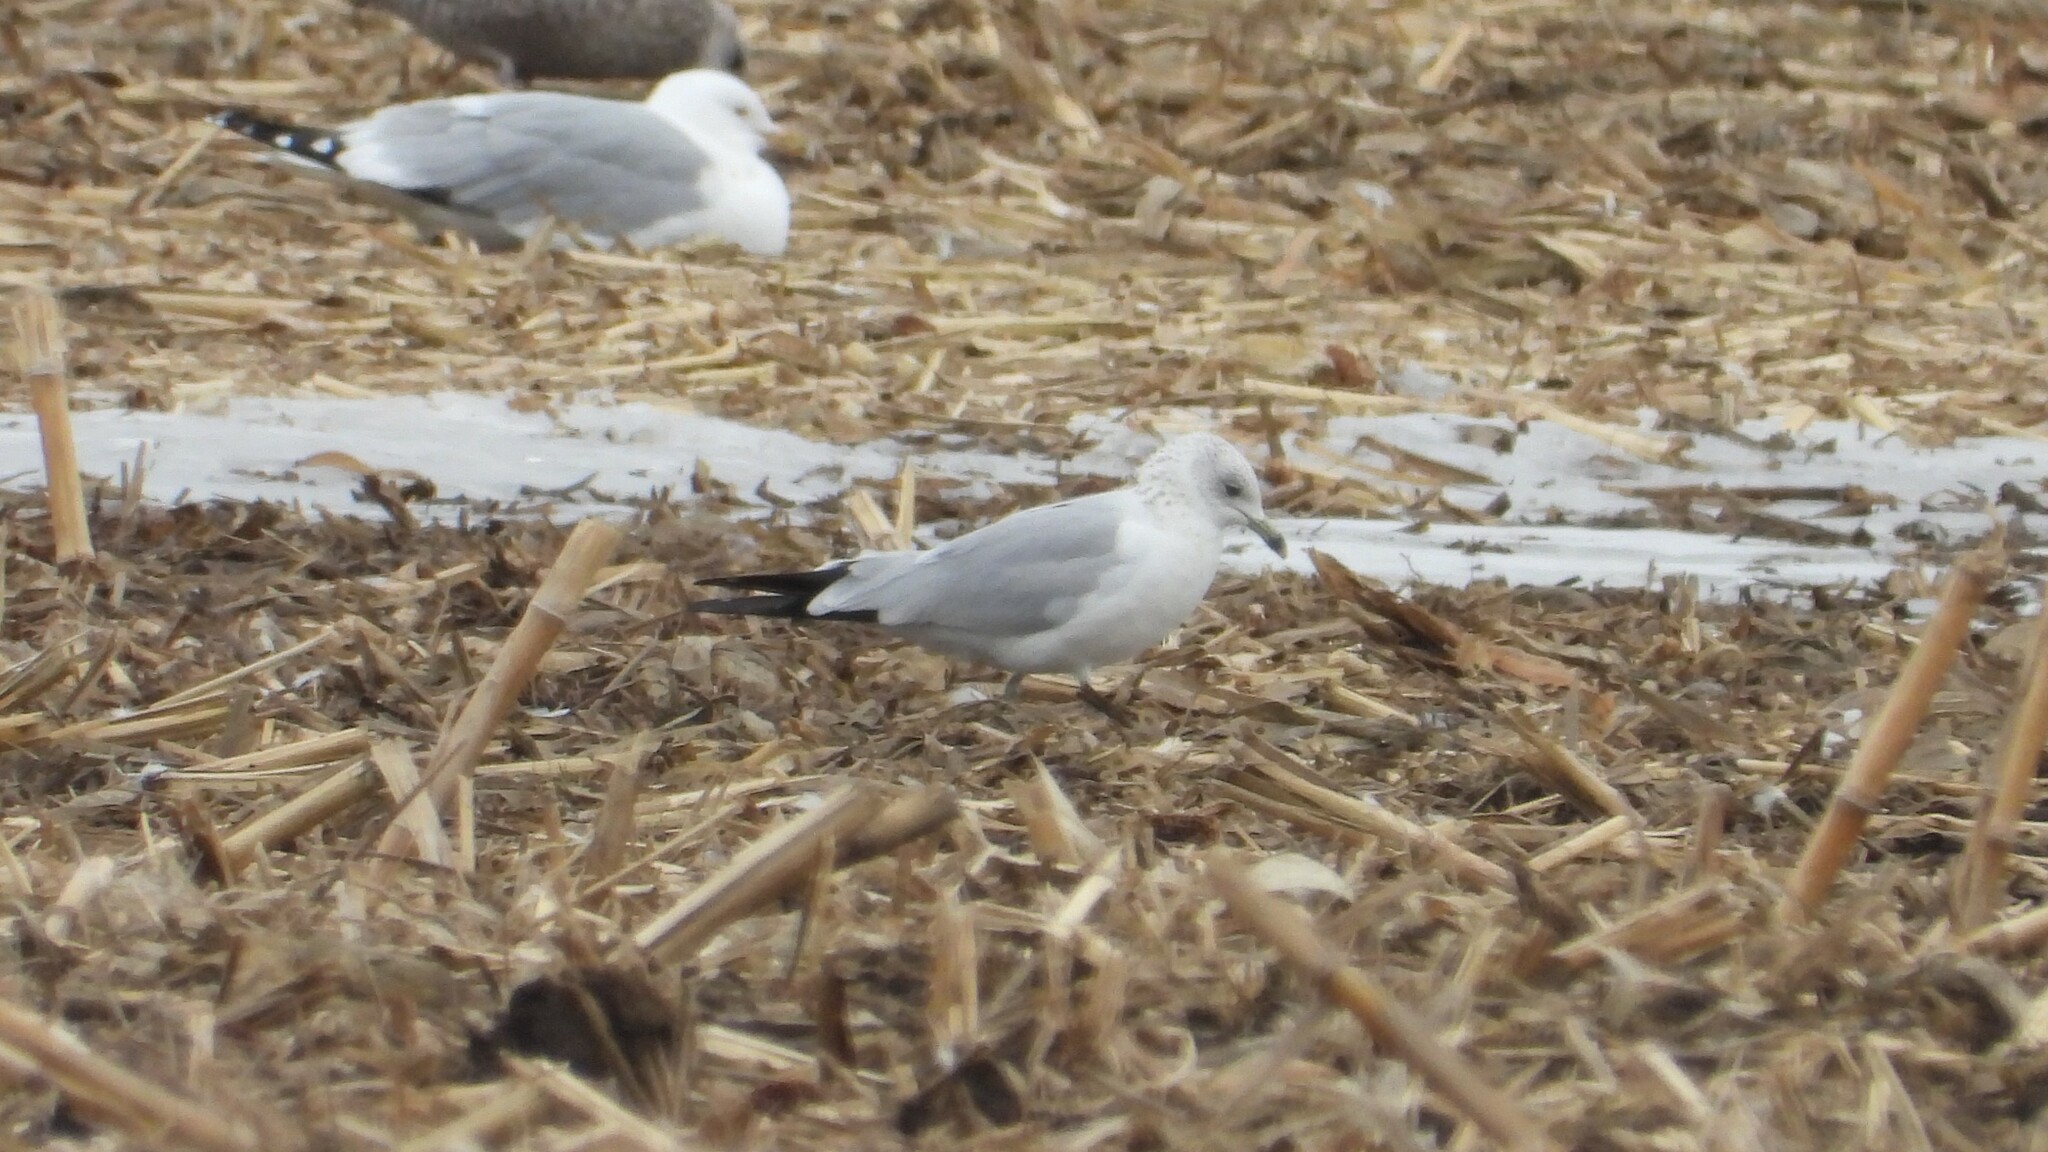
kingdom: Animalia
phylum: Chordata
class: Aves
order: Charadriiformes
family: Laridae
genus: Larus
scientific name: Larus delawarensis
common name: Ring-billed gull
